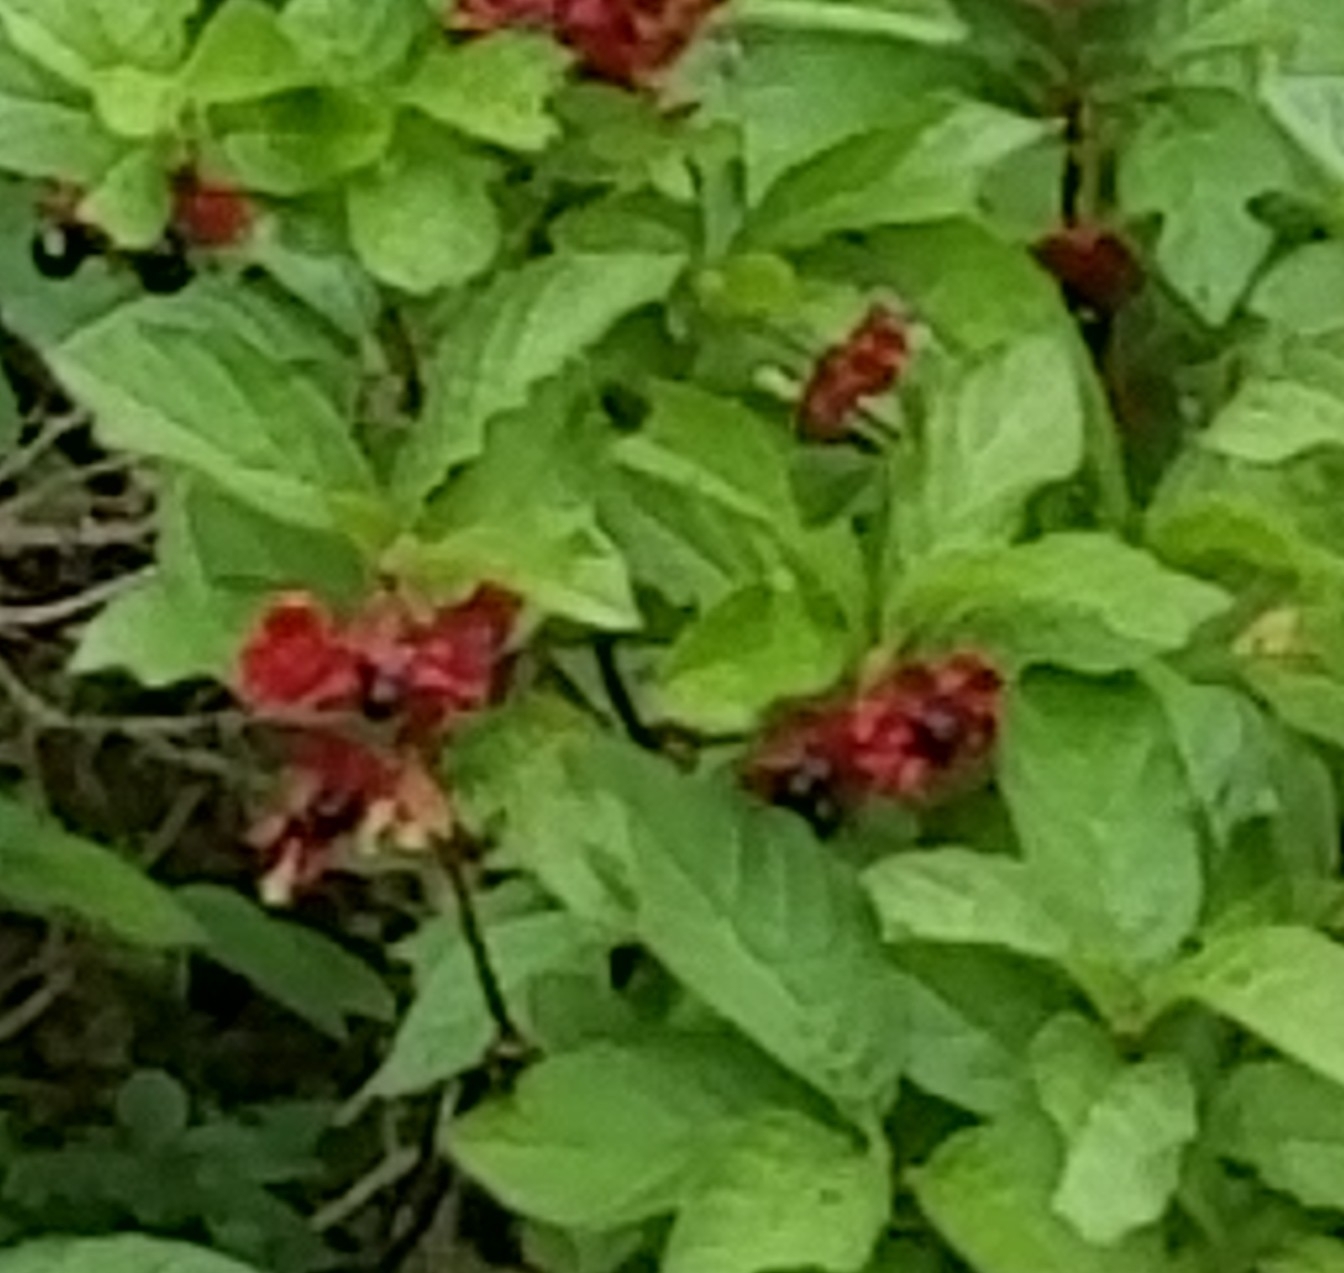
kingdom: Plantae
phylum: Tracheophyta
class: Magnoliopsida
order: Dipsacales
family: Caprifoliaceae
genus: Lonicera
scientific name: Lonicera involucrata
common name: Californian honeysuckle
